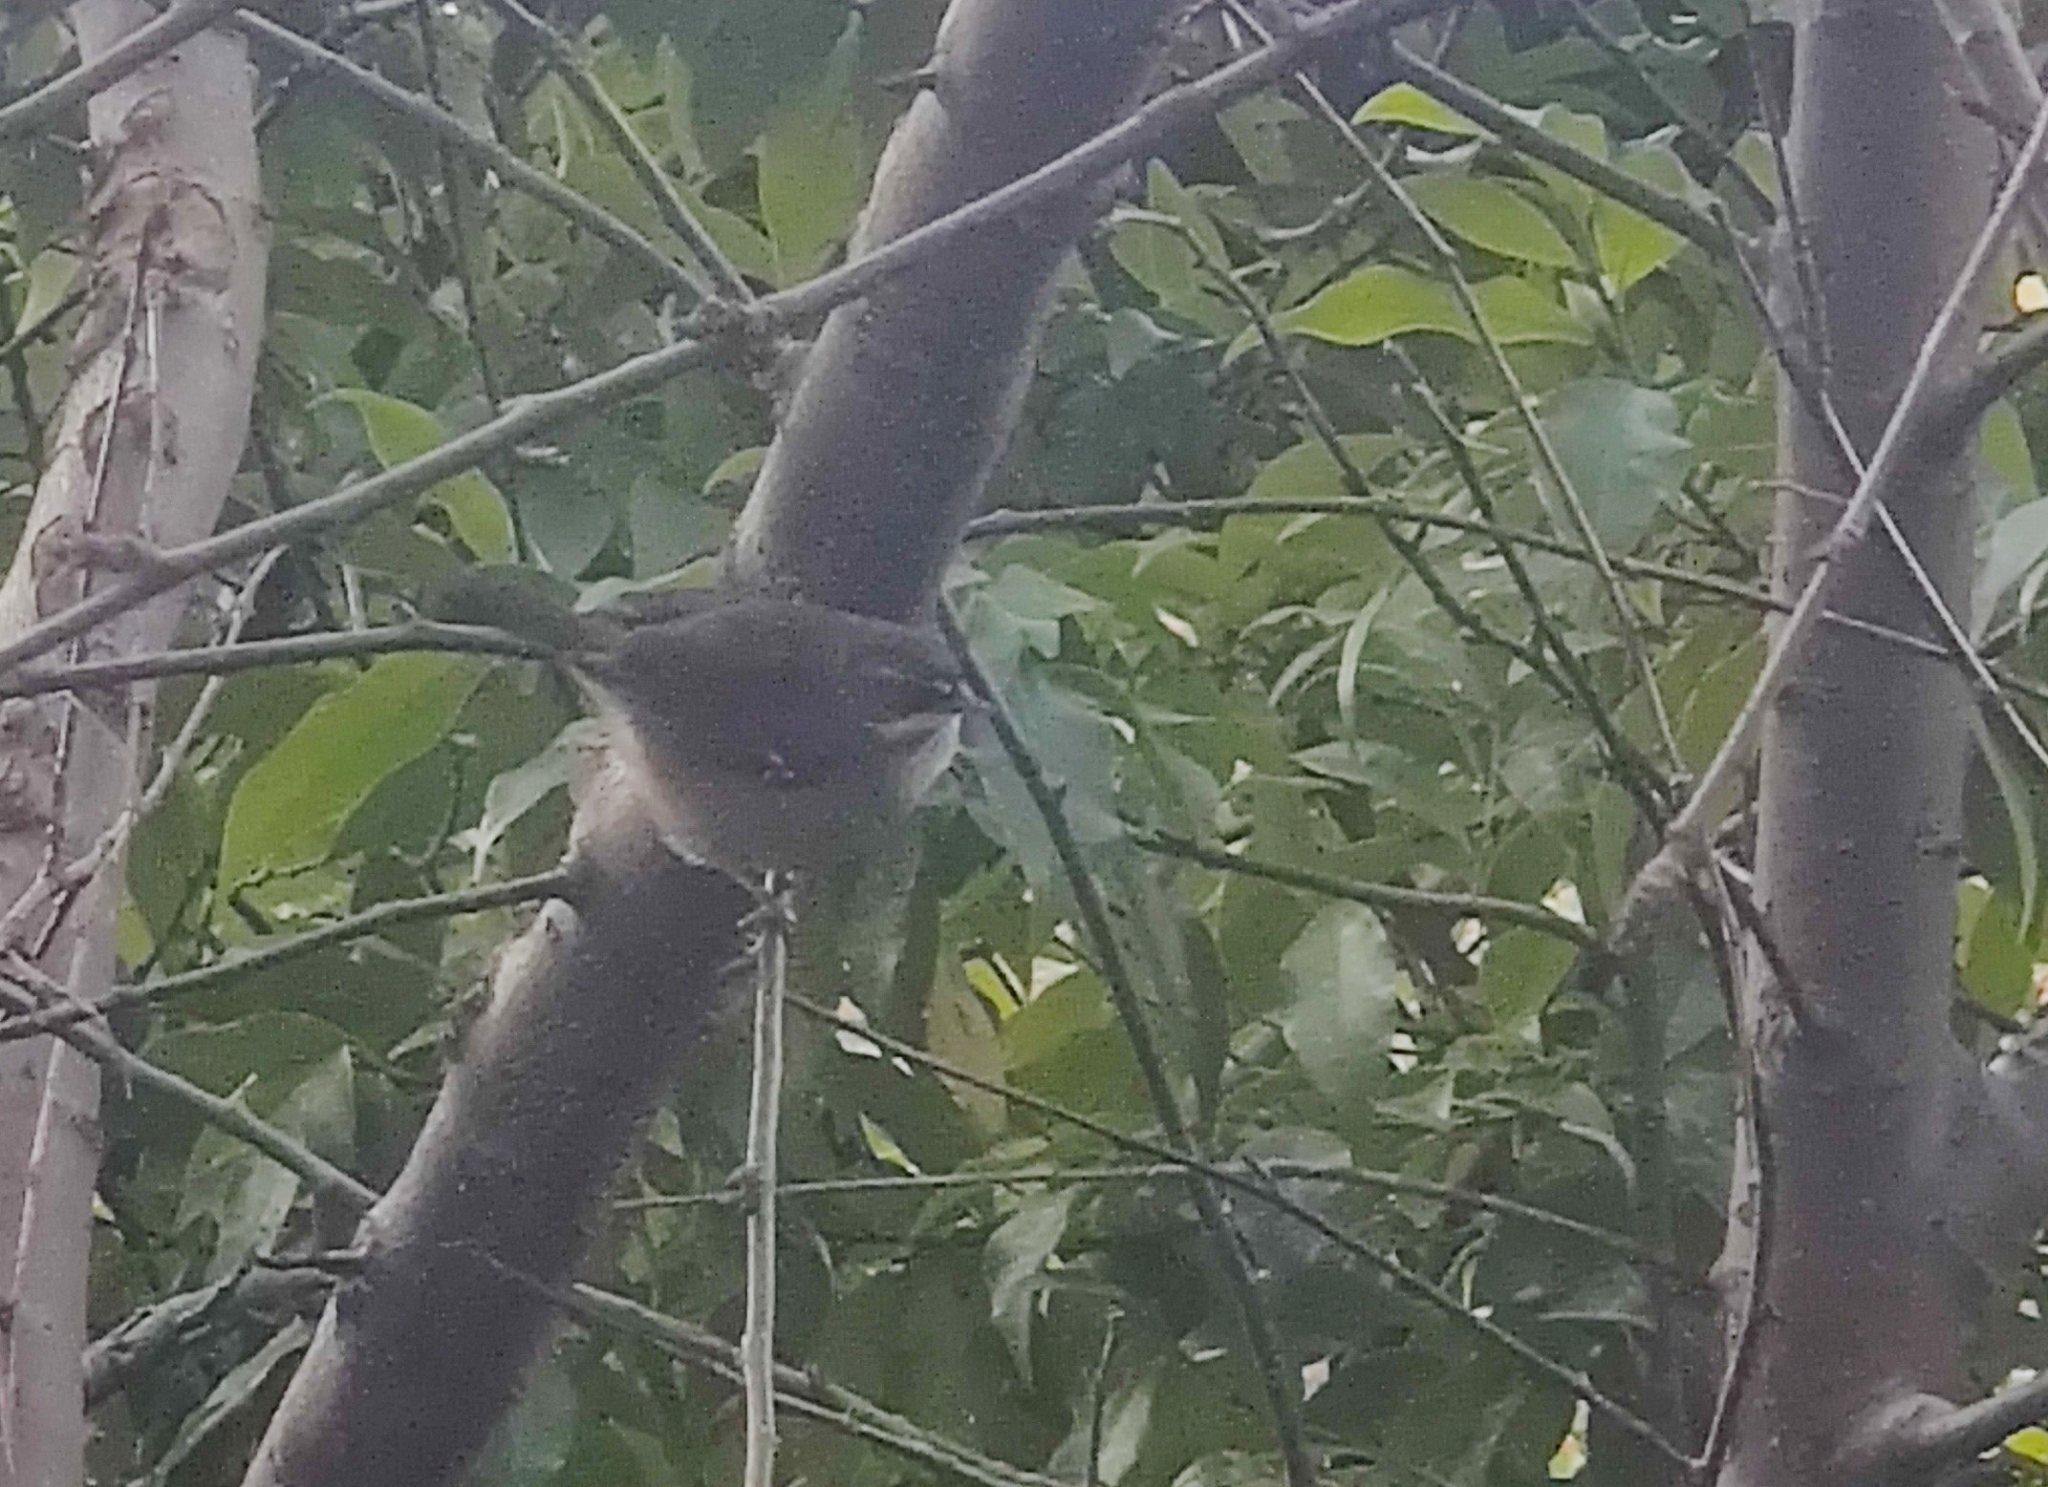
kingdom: Animalia
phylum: Chordata
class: Aves
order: Passeriformes
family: Acanthizidae
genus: Sericornis
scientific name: Sericornis frontalis
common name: White-browed scrubwren
